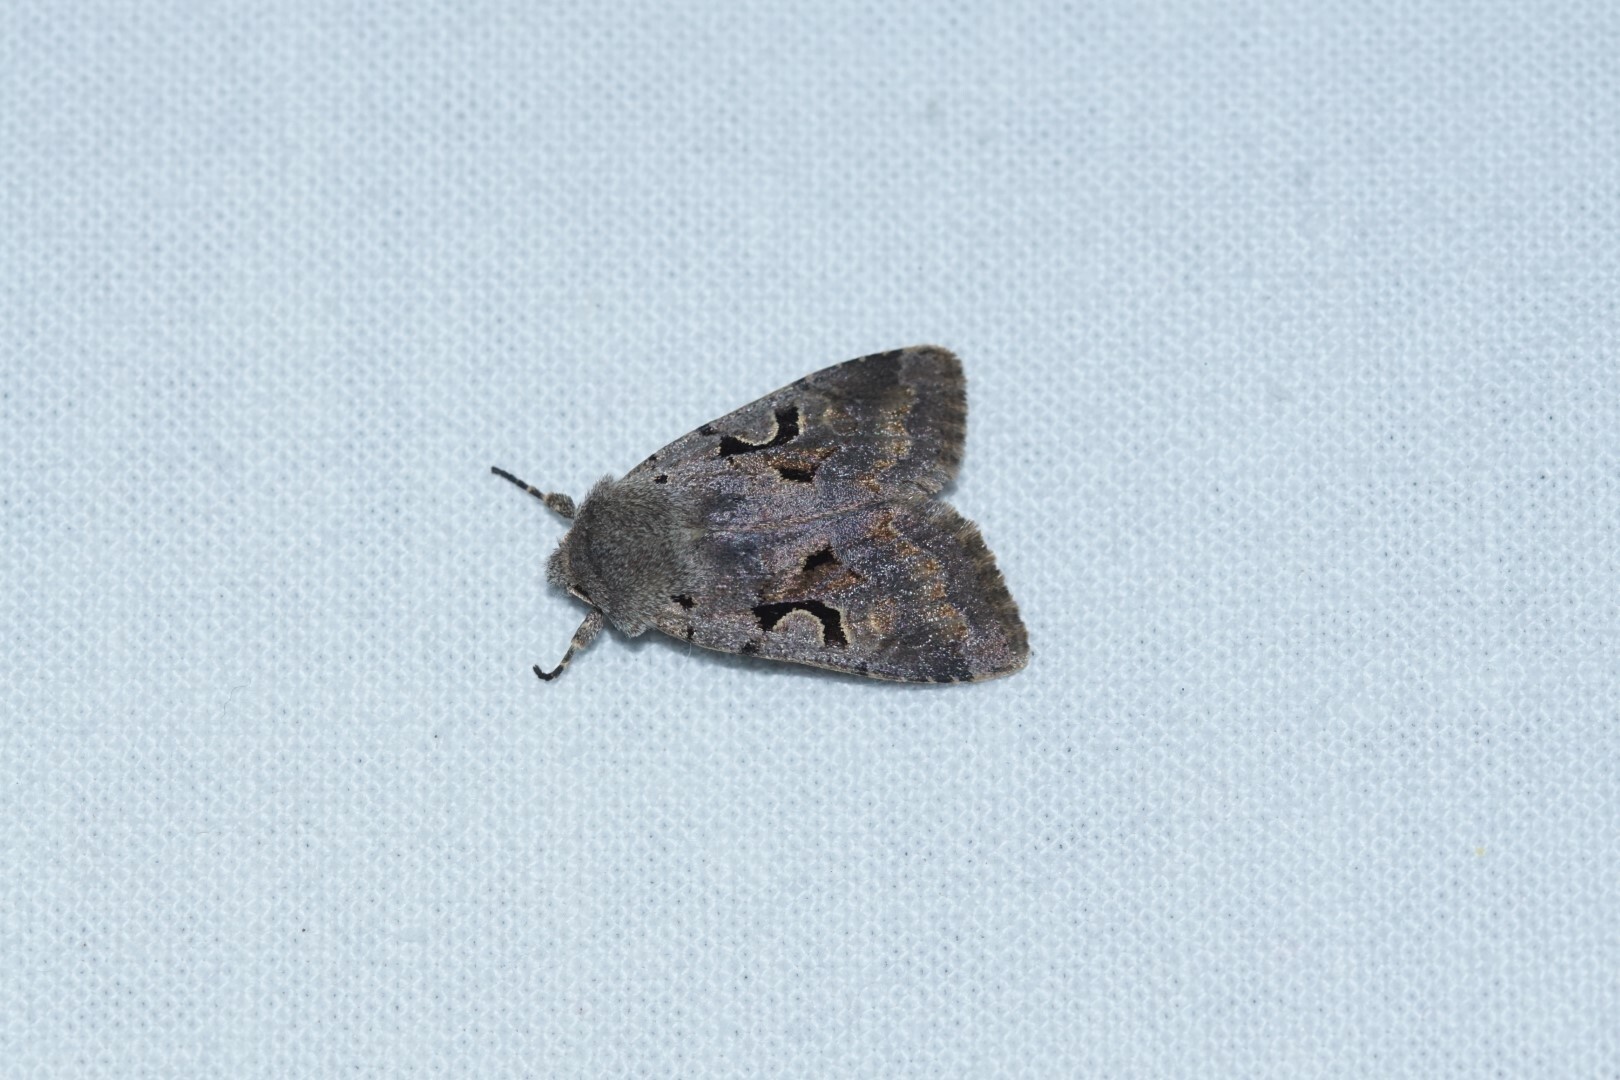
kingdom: Animalia
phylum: Arthropoda
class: Insecta
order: Lepidoptera
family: Noctuidae
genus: Orthosia
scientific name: Orthosia gothica
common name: Hebrew character
